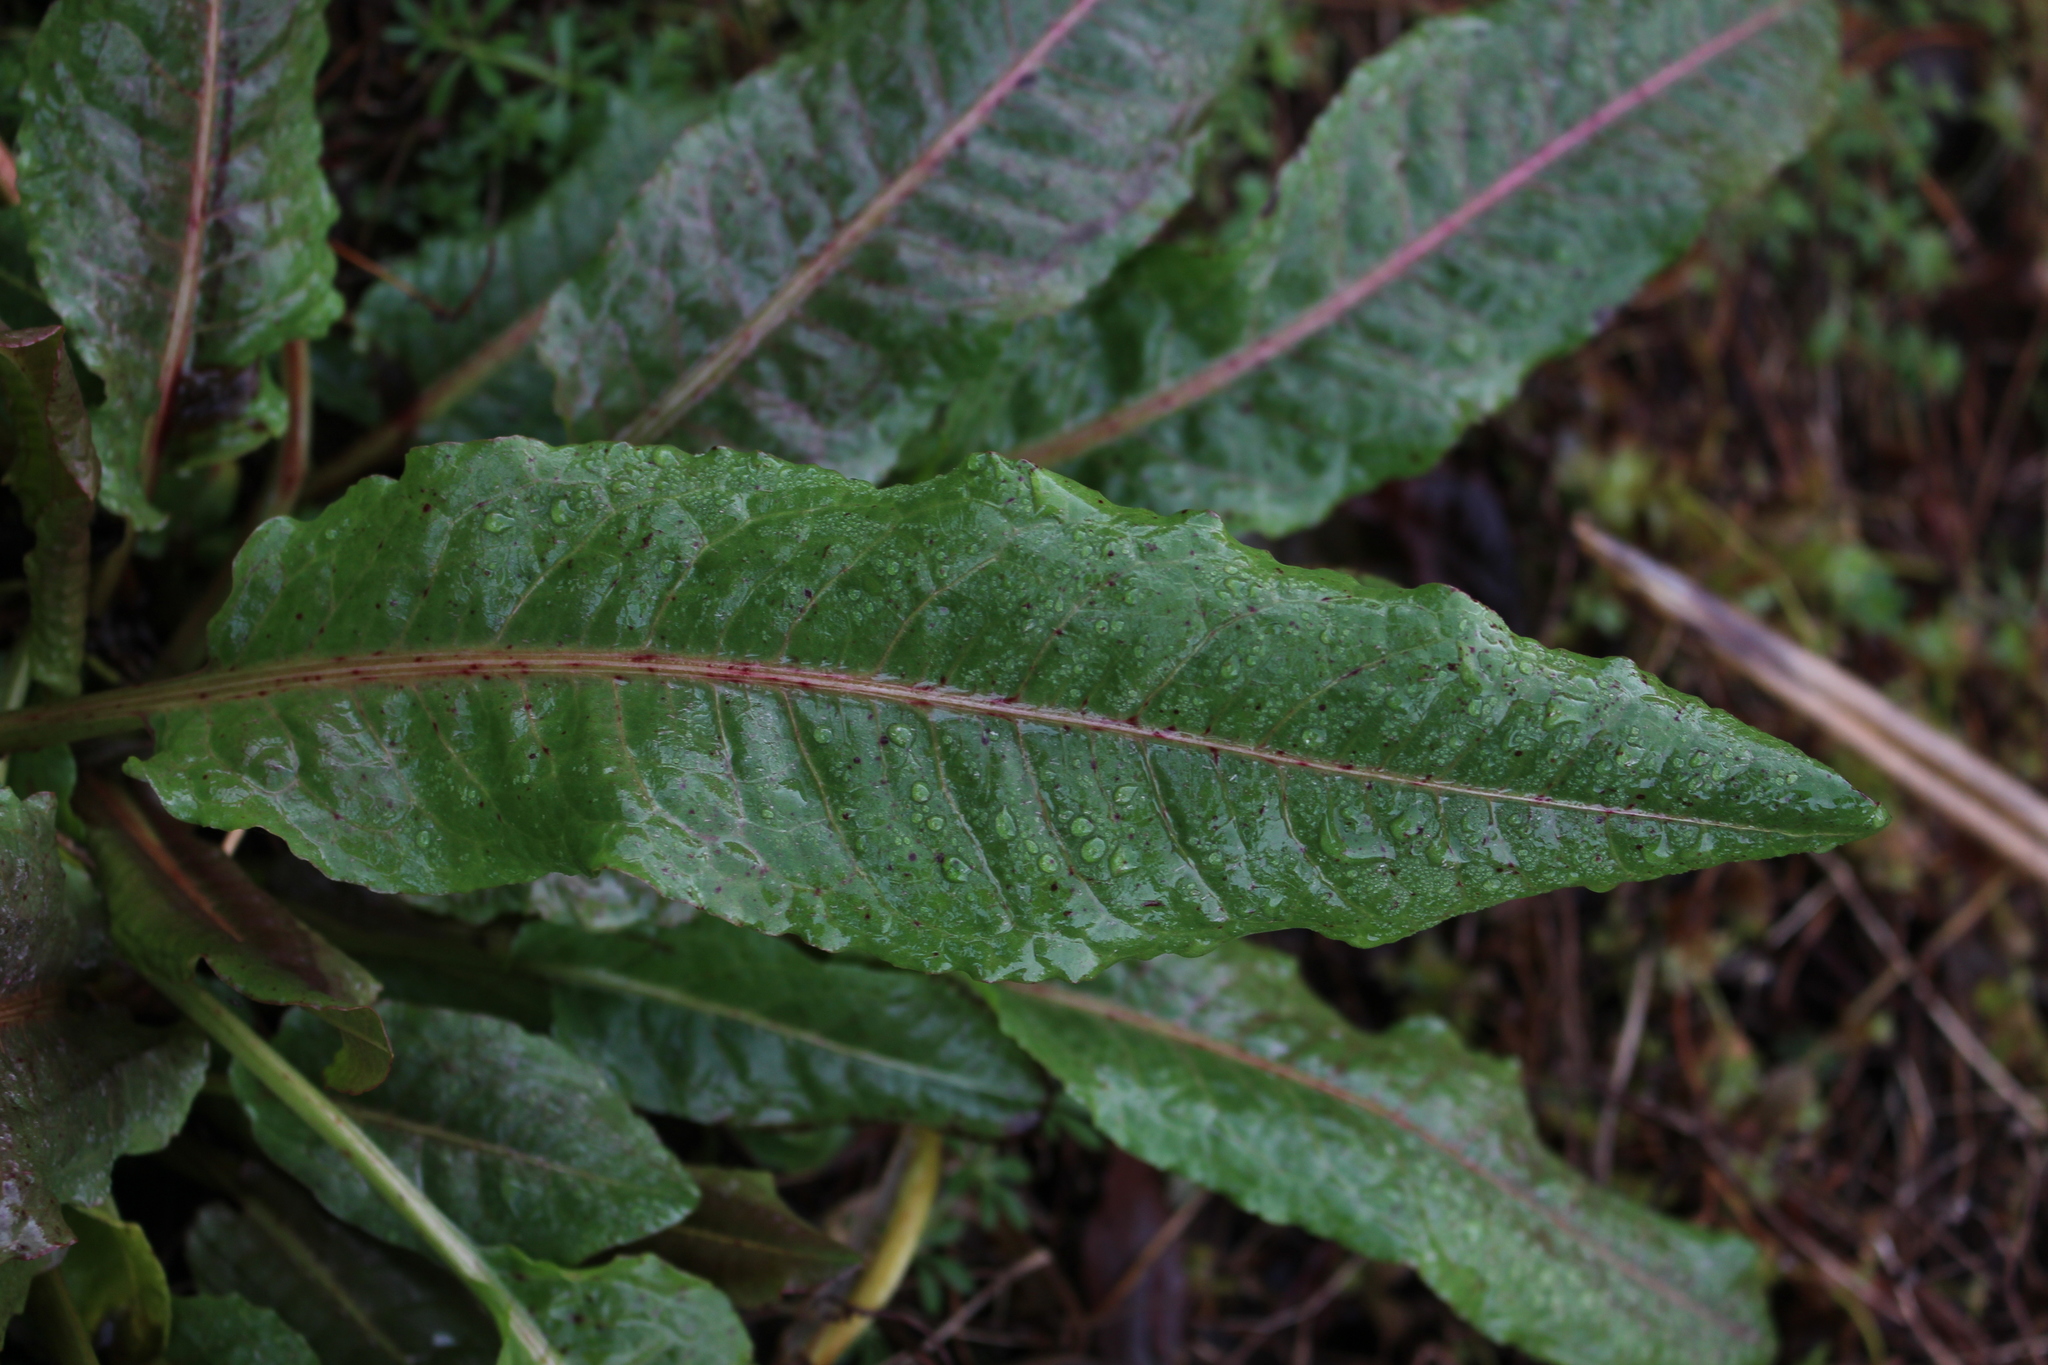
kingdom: Plantae
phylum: Tracheophyta
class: Magnoliopsida
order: Caryophyllales
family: Polygonaceae
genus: Rumex
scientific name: Rumex conglomeratus
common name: Clustered dock
